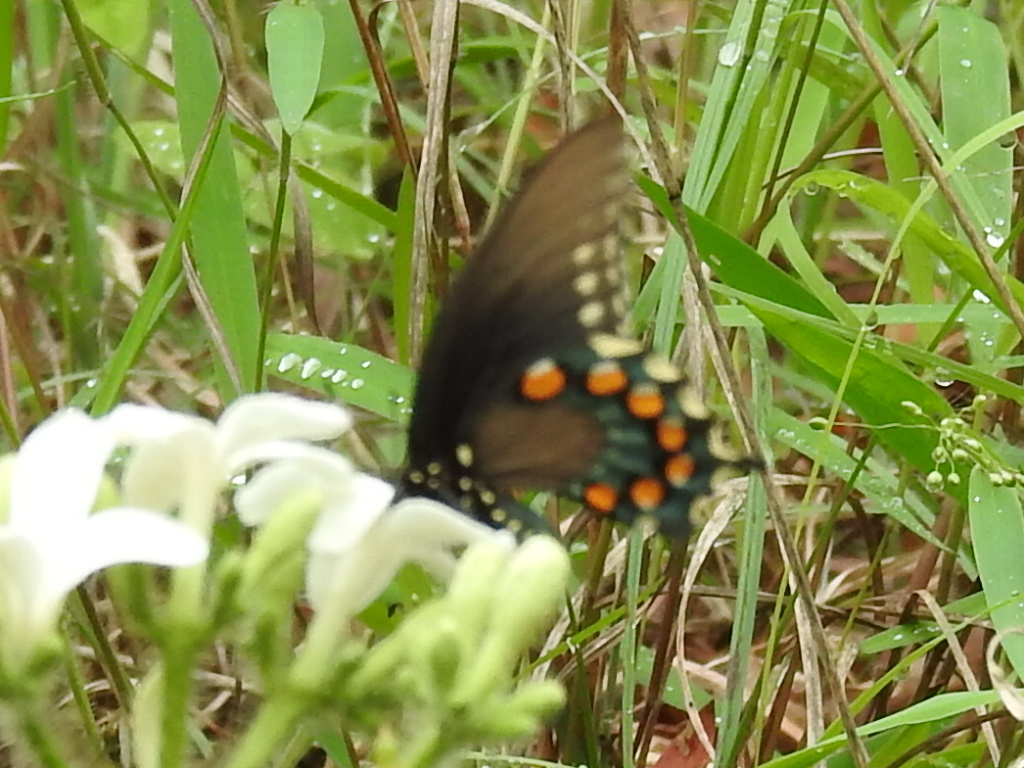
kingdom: Animalia
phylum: Arthropoda
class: Insecta
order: Lepidoptera
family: Papilionidae
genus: Battus
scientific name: Battus philenor
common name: Pipevine swallowtail
